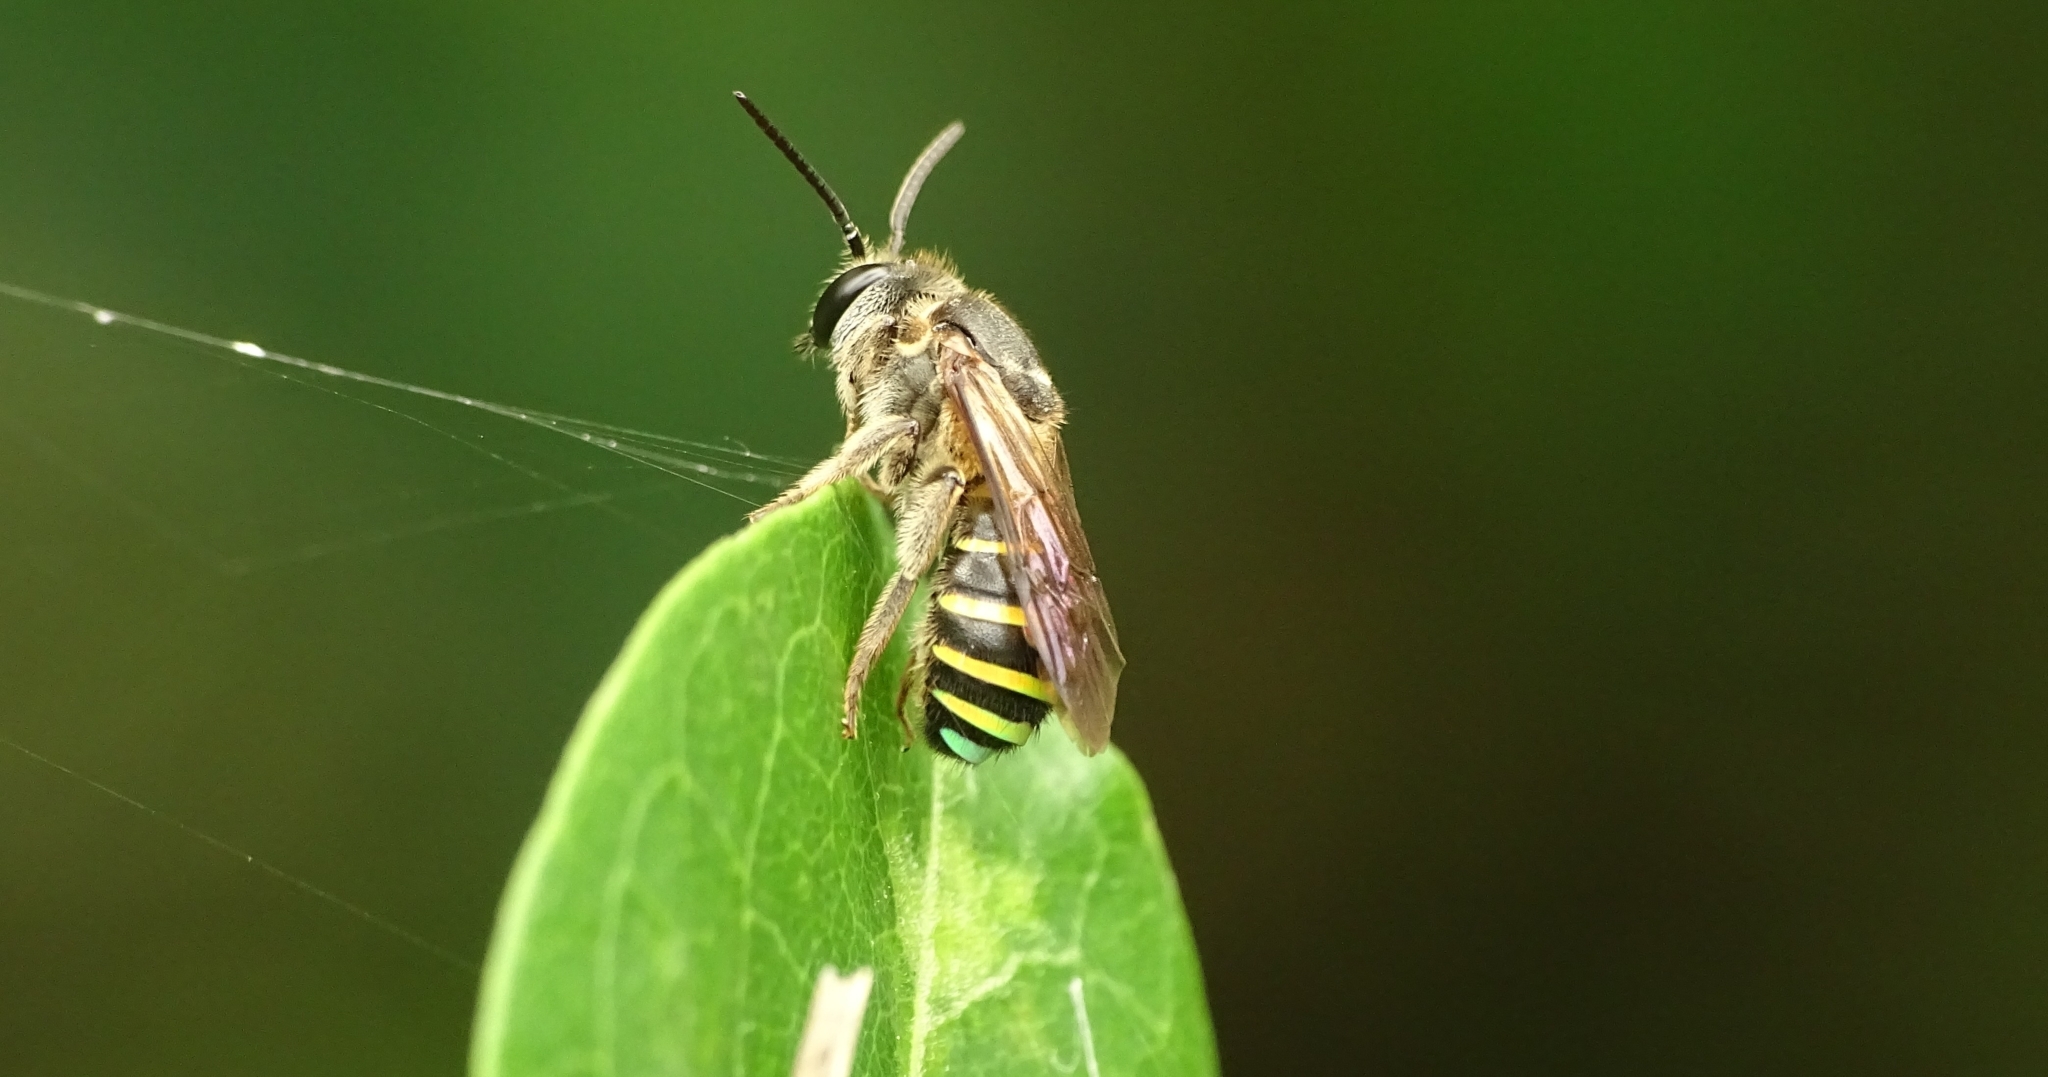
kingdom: Animalia
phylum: Arthropoda
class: Insecta
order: Hymenoptera
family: Halictidae
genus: Nomia
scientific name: Nomia strigata
